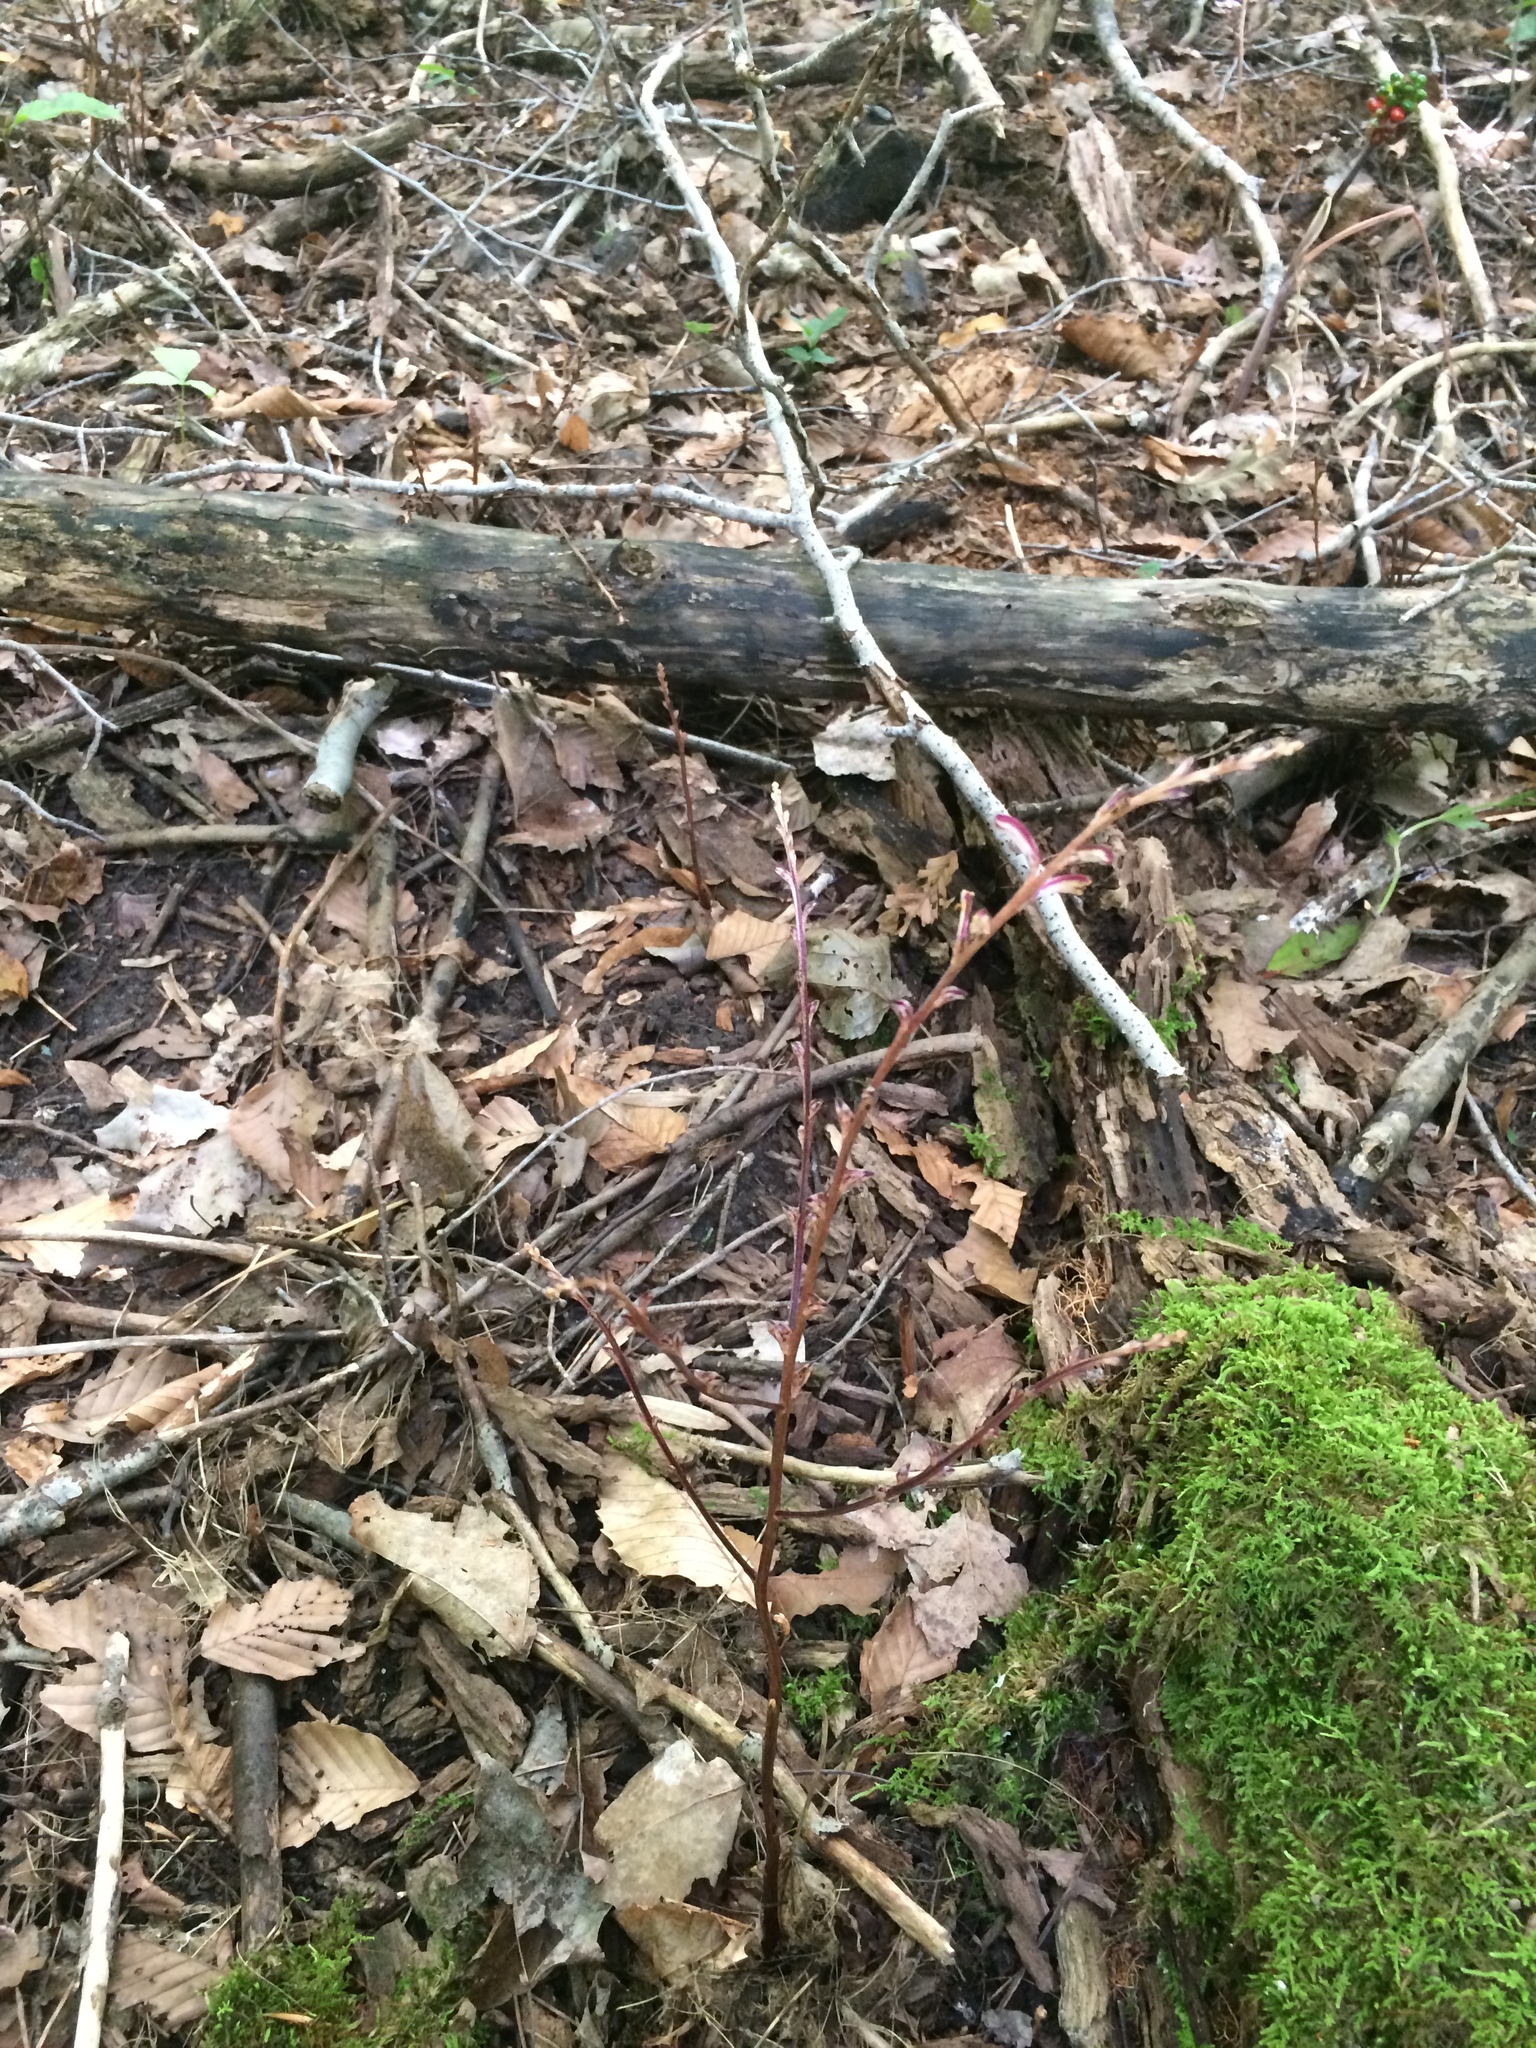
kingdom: Plantae
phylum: Tracheophyta
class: Magnoliopsida
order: Lamiales
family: Orobanchaceae
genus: Epifagus
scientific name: Epifagus virginiana
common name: Beechdrops
